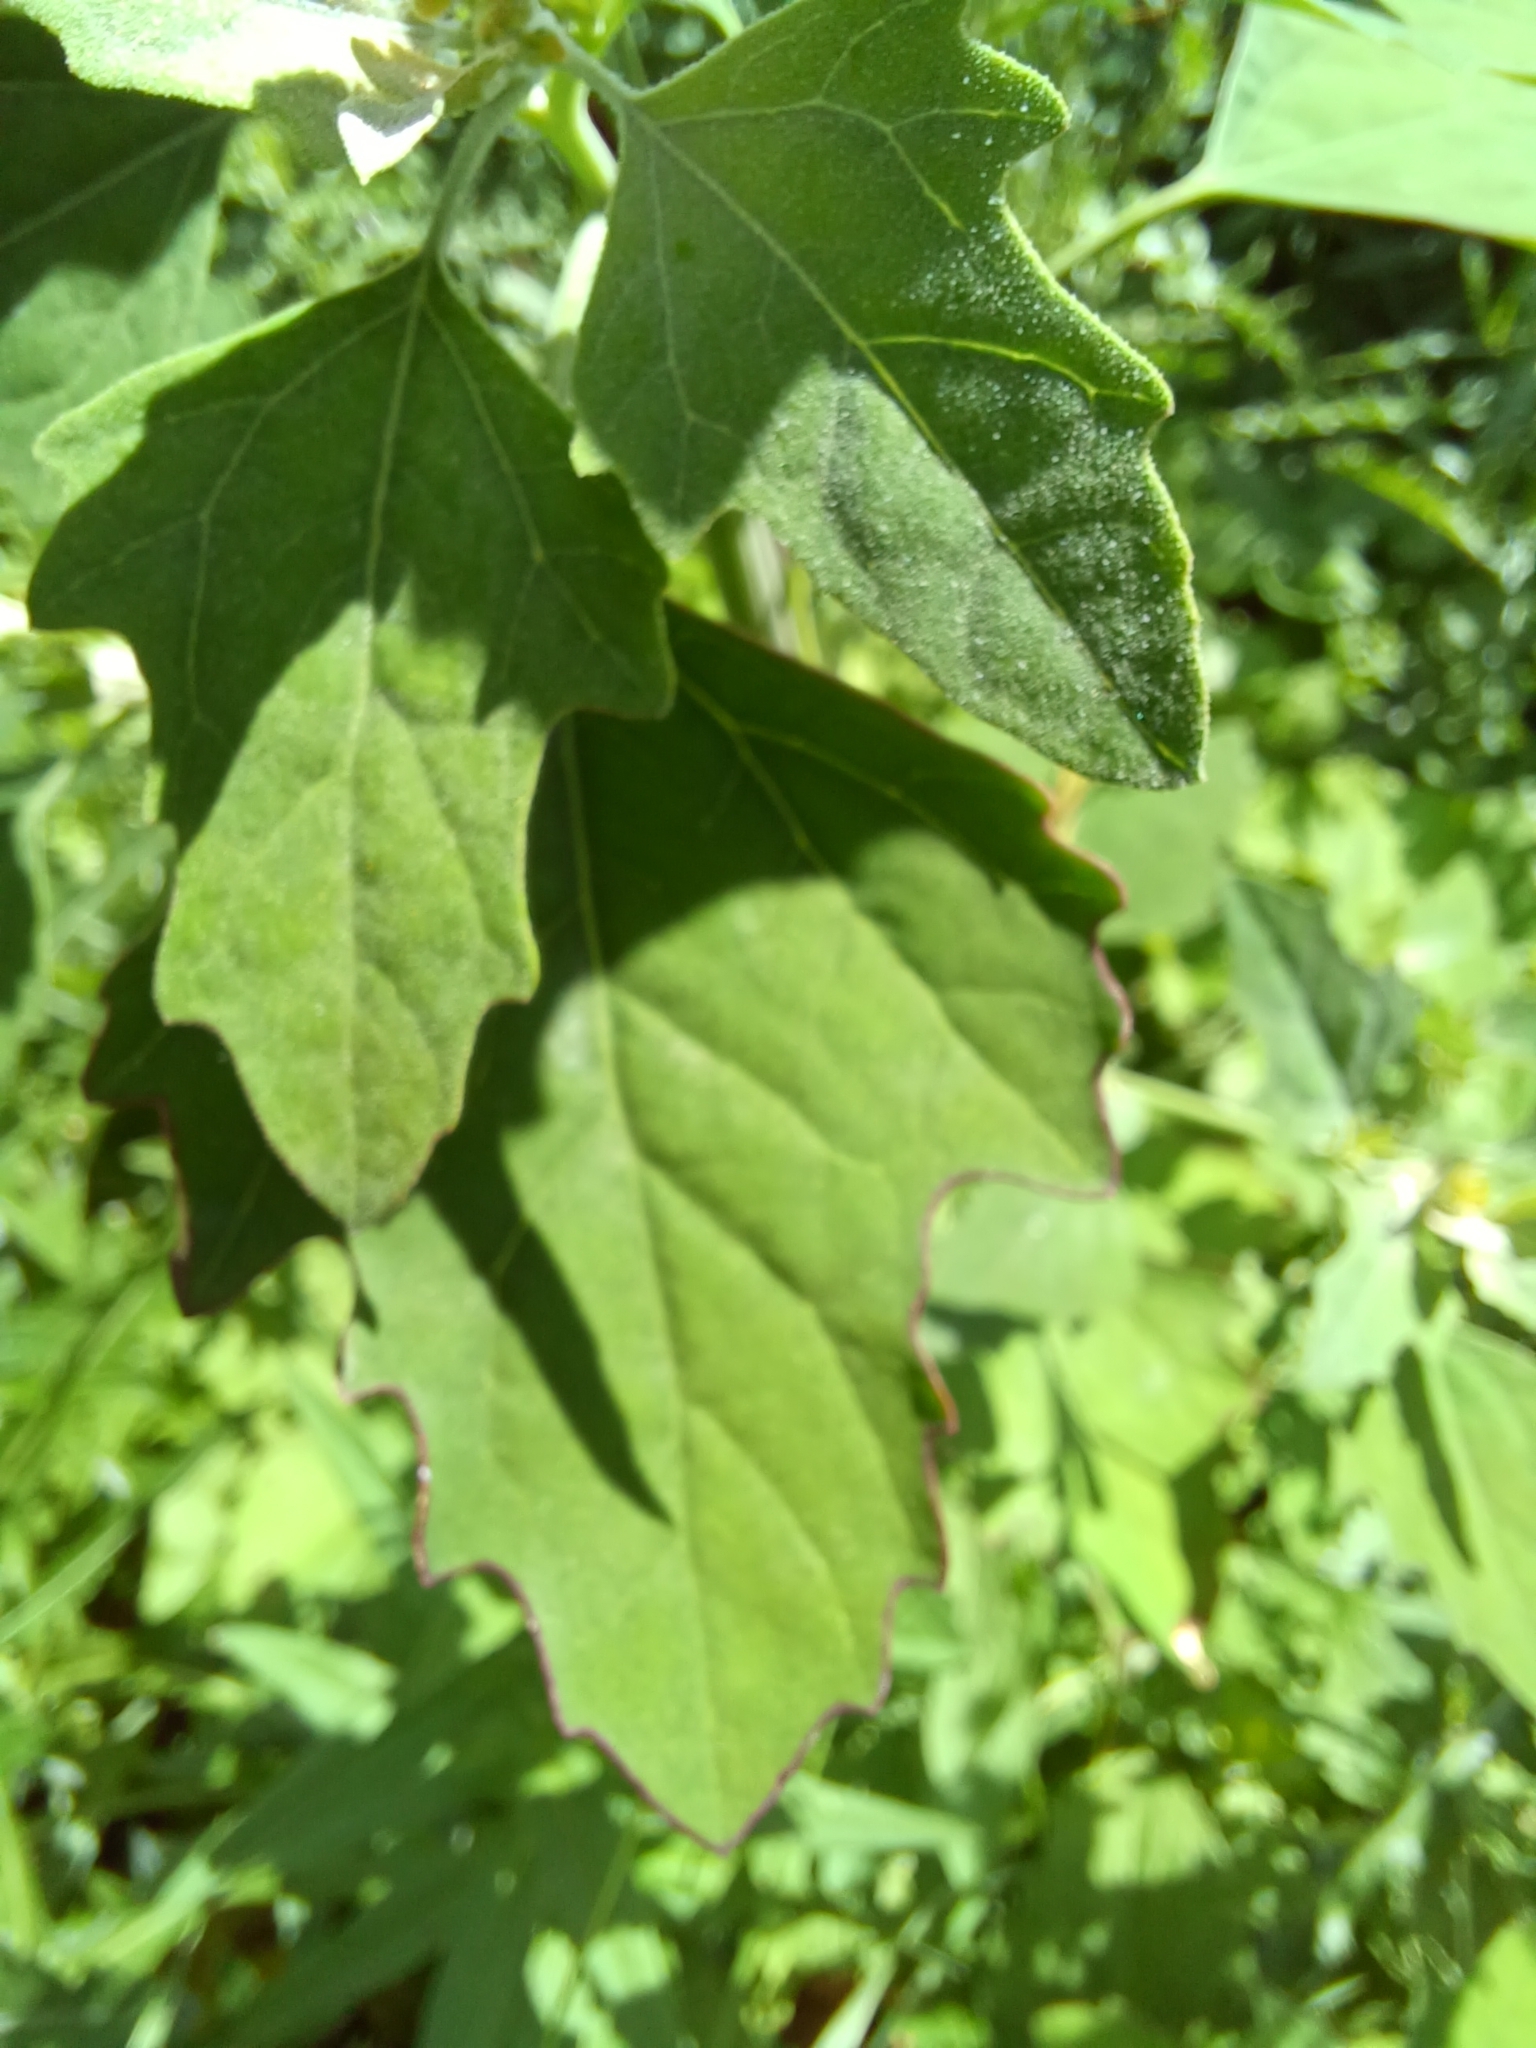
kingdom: Plantae
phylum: Tracheophyta
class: Magnoliopsida
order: Caryophyllales
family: Amaranthaceae
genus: Chenopodium
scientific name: Chenopodium album
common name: Fat-hen
